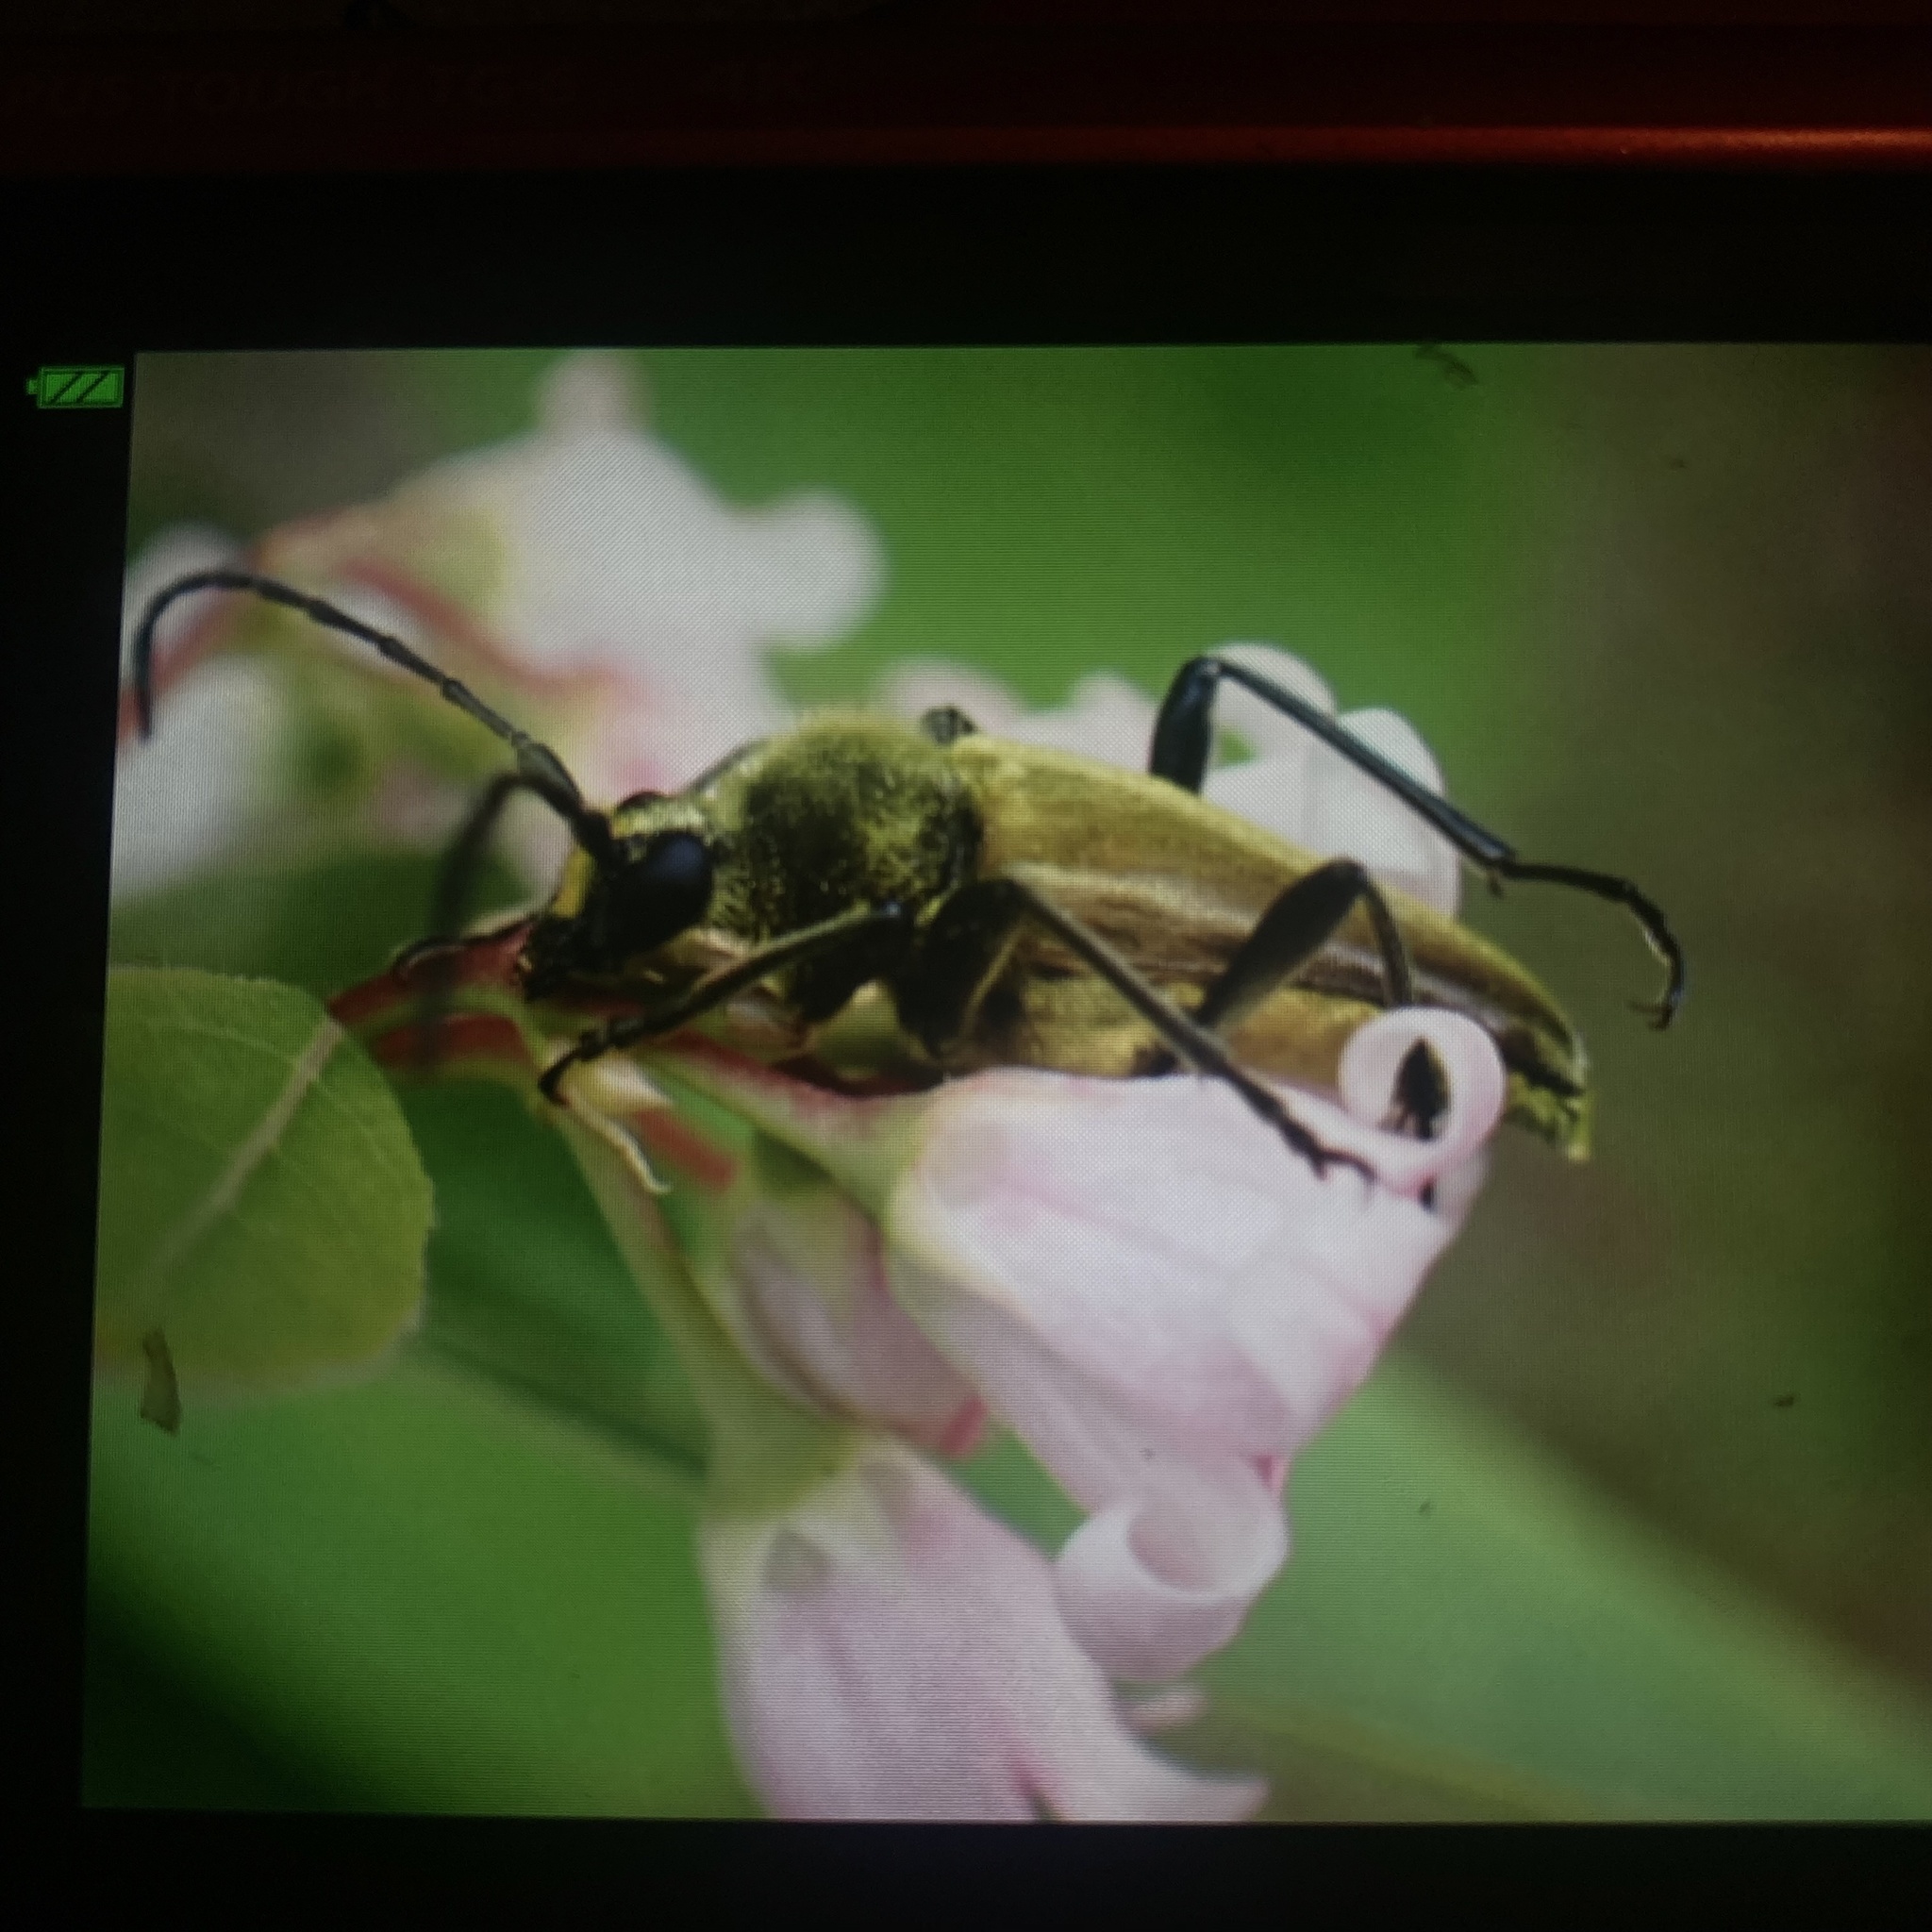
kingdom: Animalia
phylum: Arthropoda
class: Insecta
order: Coleoptera
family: Cerambycidae
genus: Cosmosalia
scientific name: Cosmosalia chrysocoma
